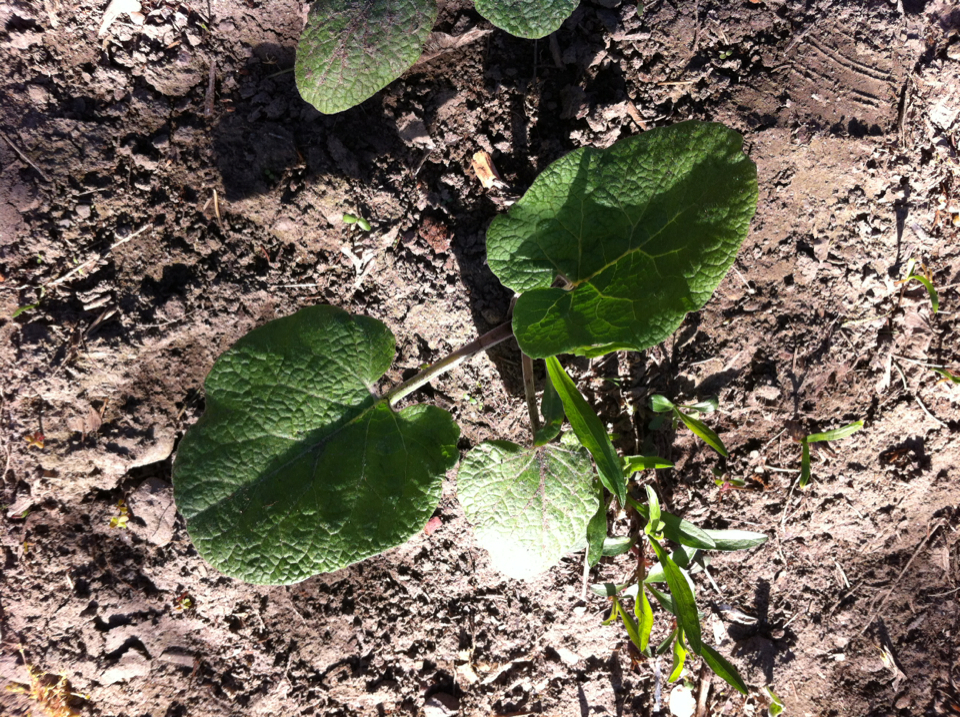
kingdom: Plantae
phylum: Tracheophyta
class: Magnoliopsida
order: Asterales
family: Asteraceae
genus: Arctium
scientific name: Arctium
